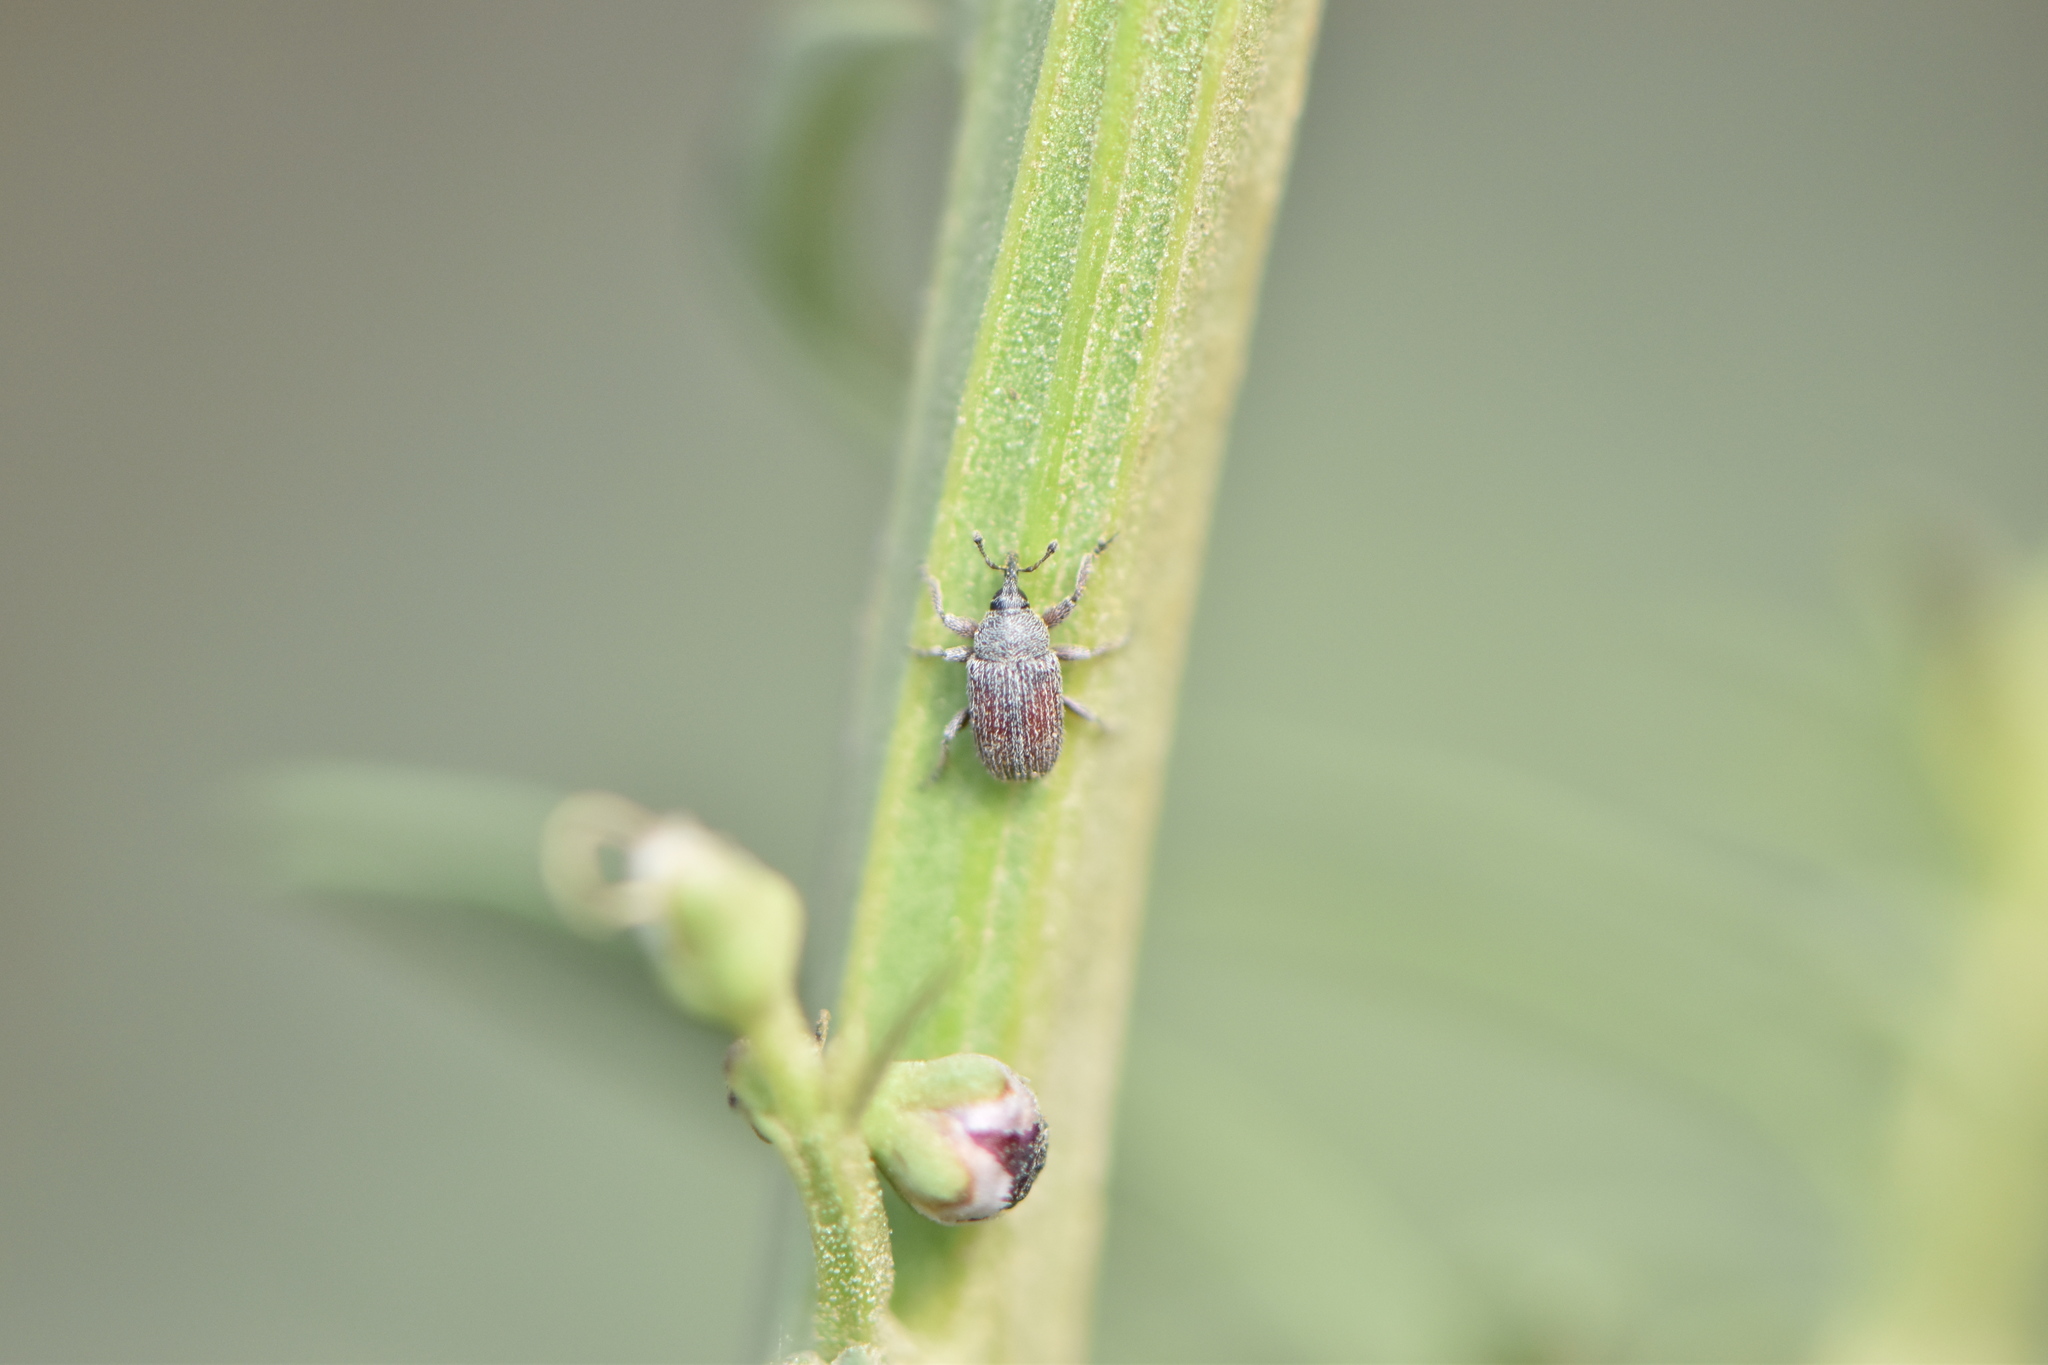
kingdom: Animalia
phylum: Arthropoda
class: Insecta
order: Coleoptera
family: Curculionidae
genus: Rhinusa
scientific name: Rhinusa algiricum
